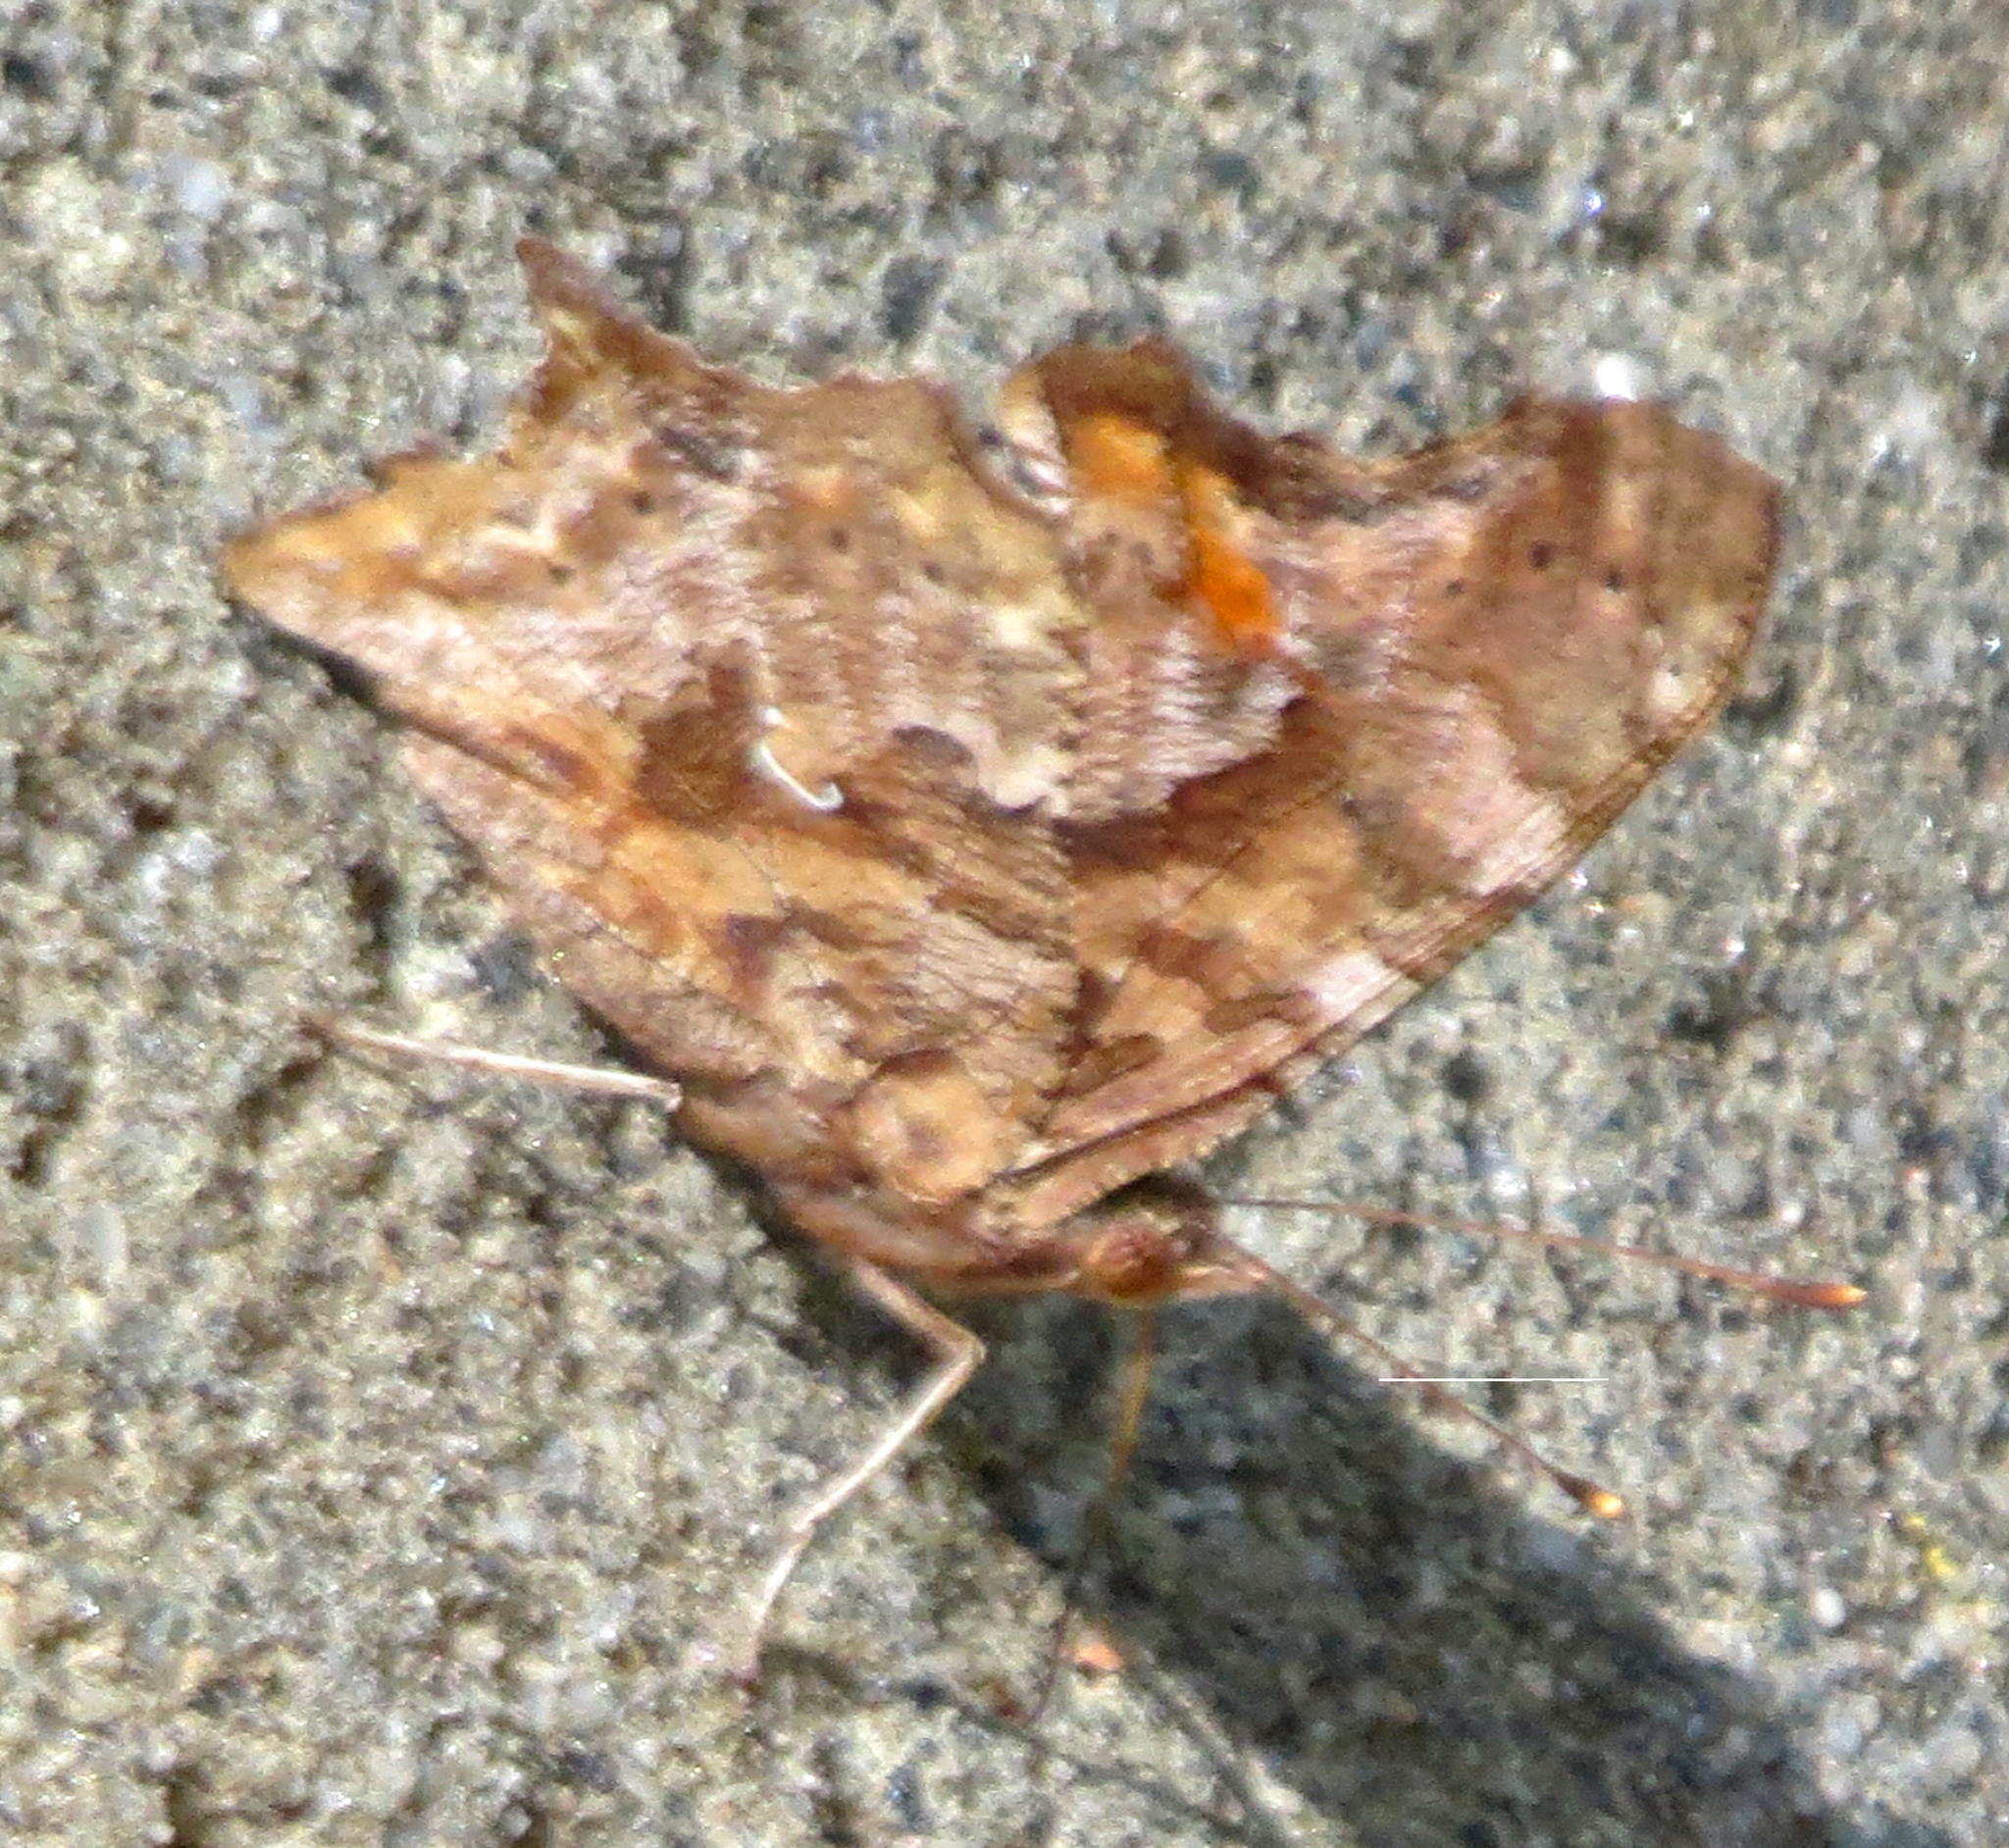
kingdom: Animalia
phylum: Arthropoda
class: Insecta
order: Lepidoptera
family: Nymphalidae
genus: Polygonia
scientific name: Polygonia comma
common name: Eastern comma
